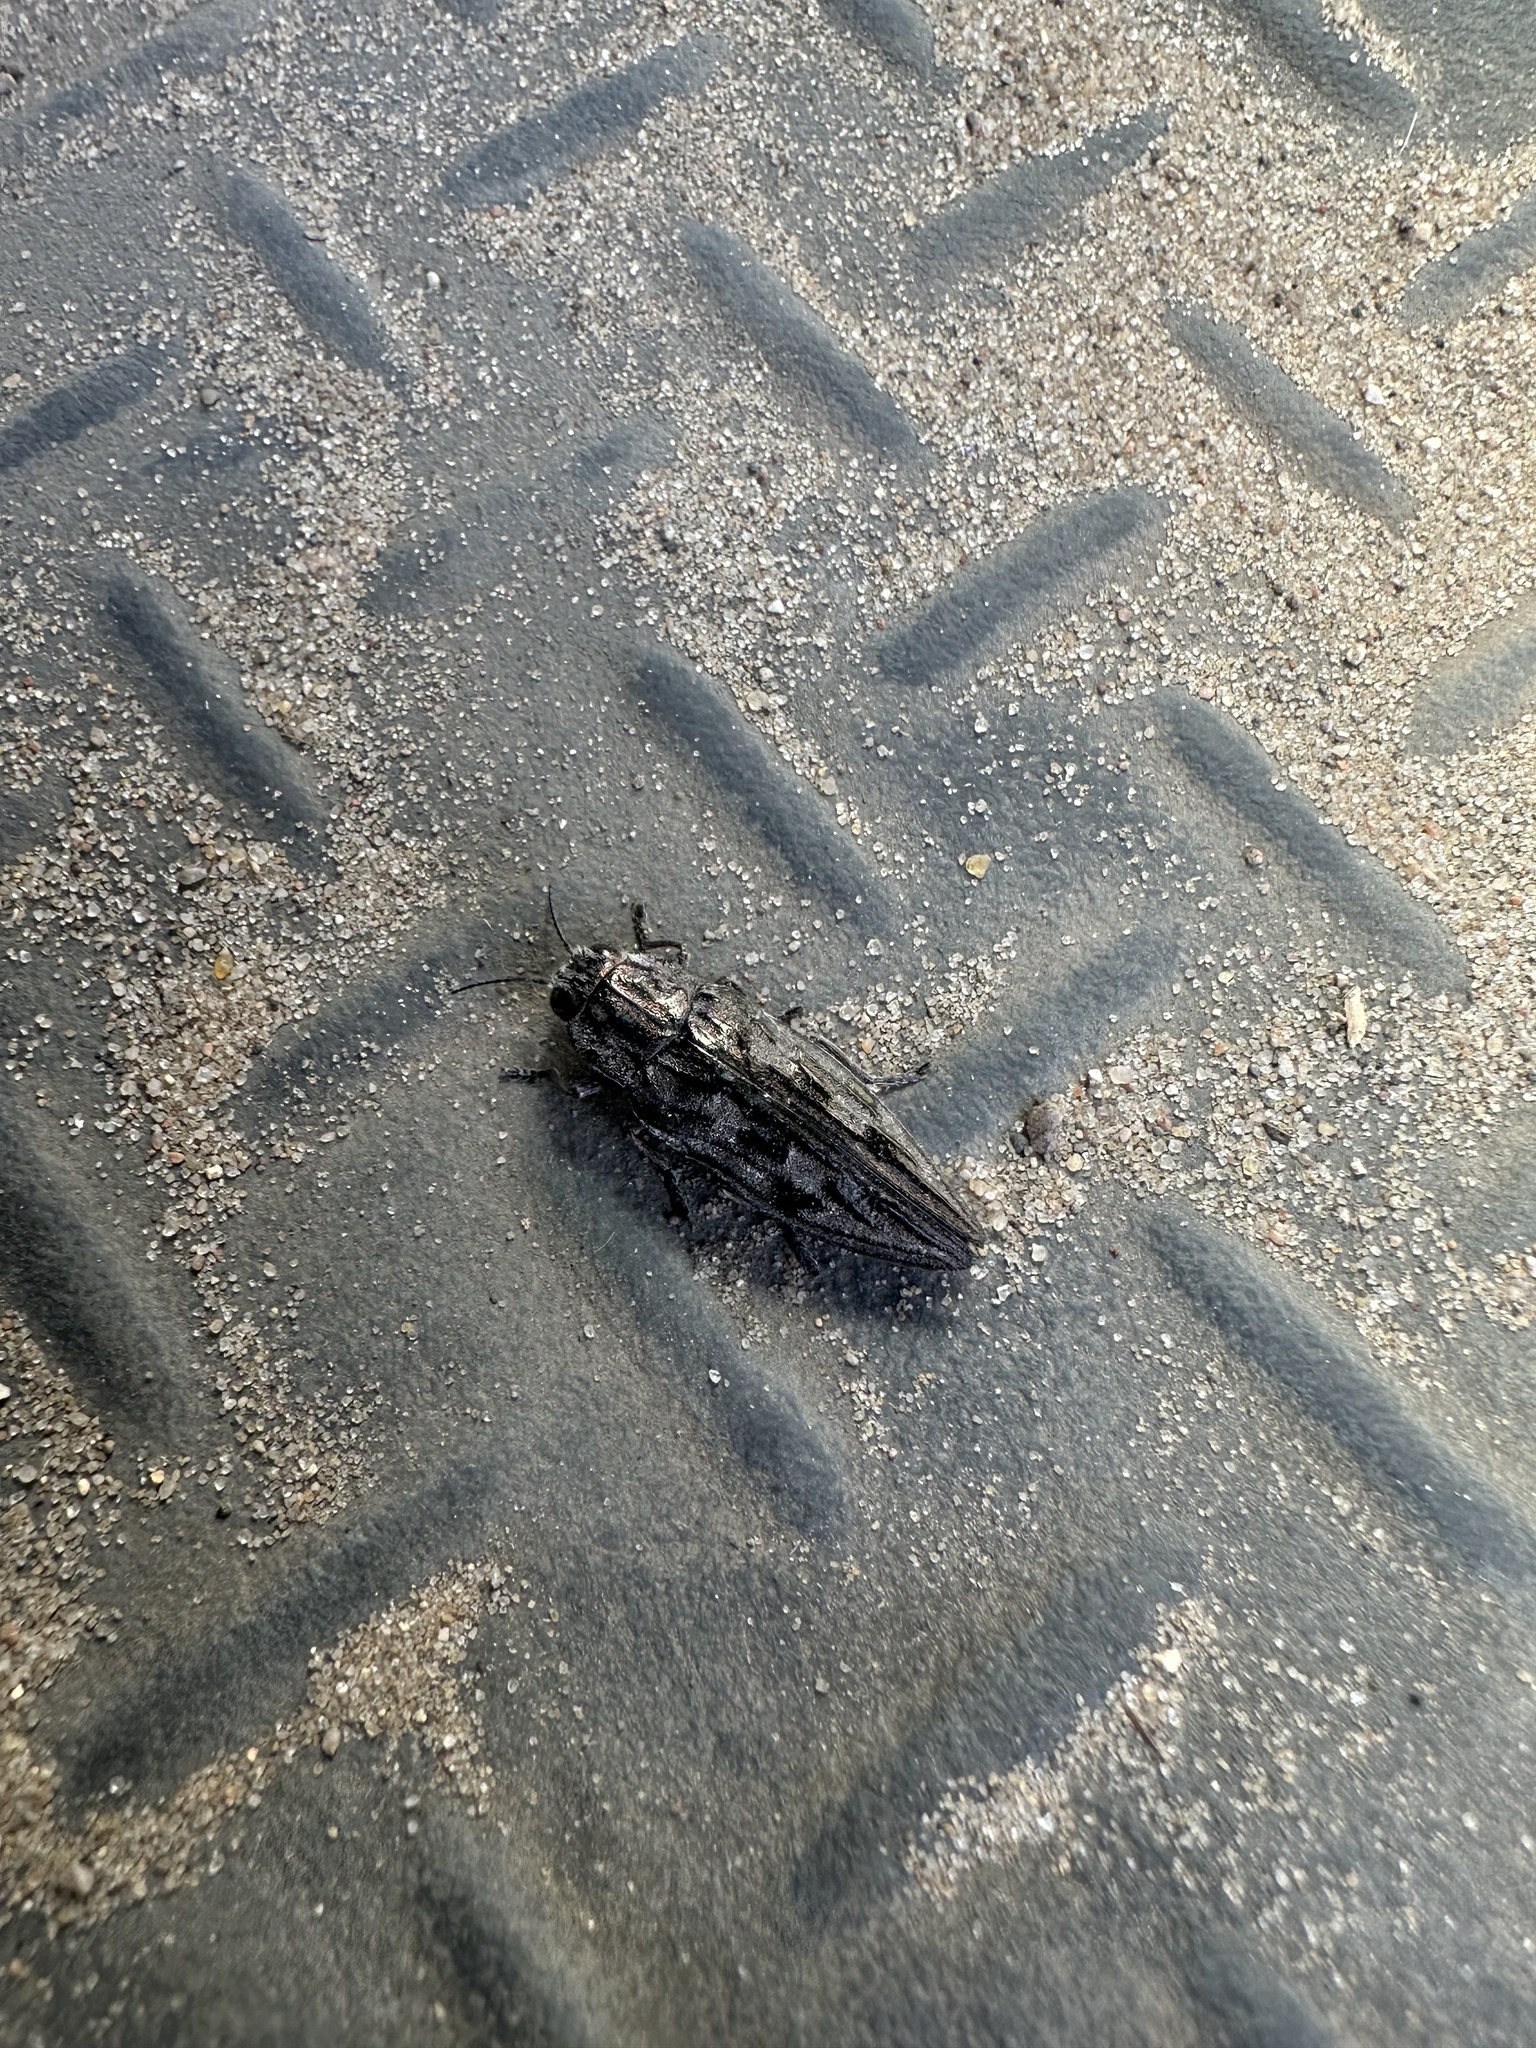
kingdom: Animalia
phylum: Arthropoda
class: Insecta
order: Coleoptera
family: Buprestidae
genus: Chalcophora
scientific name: Chalcophora virginiensis
